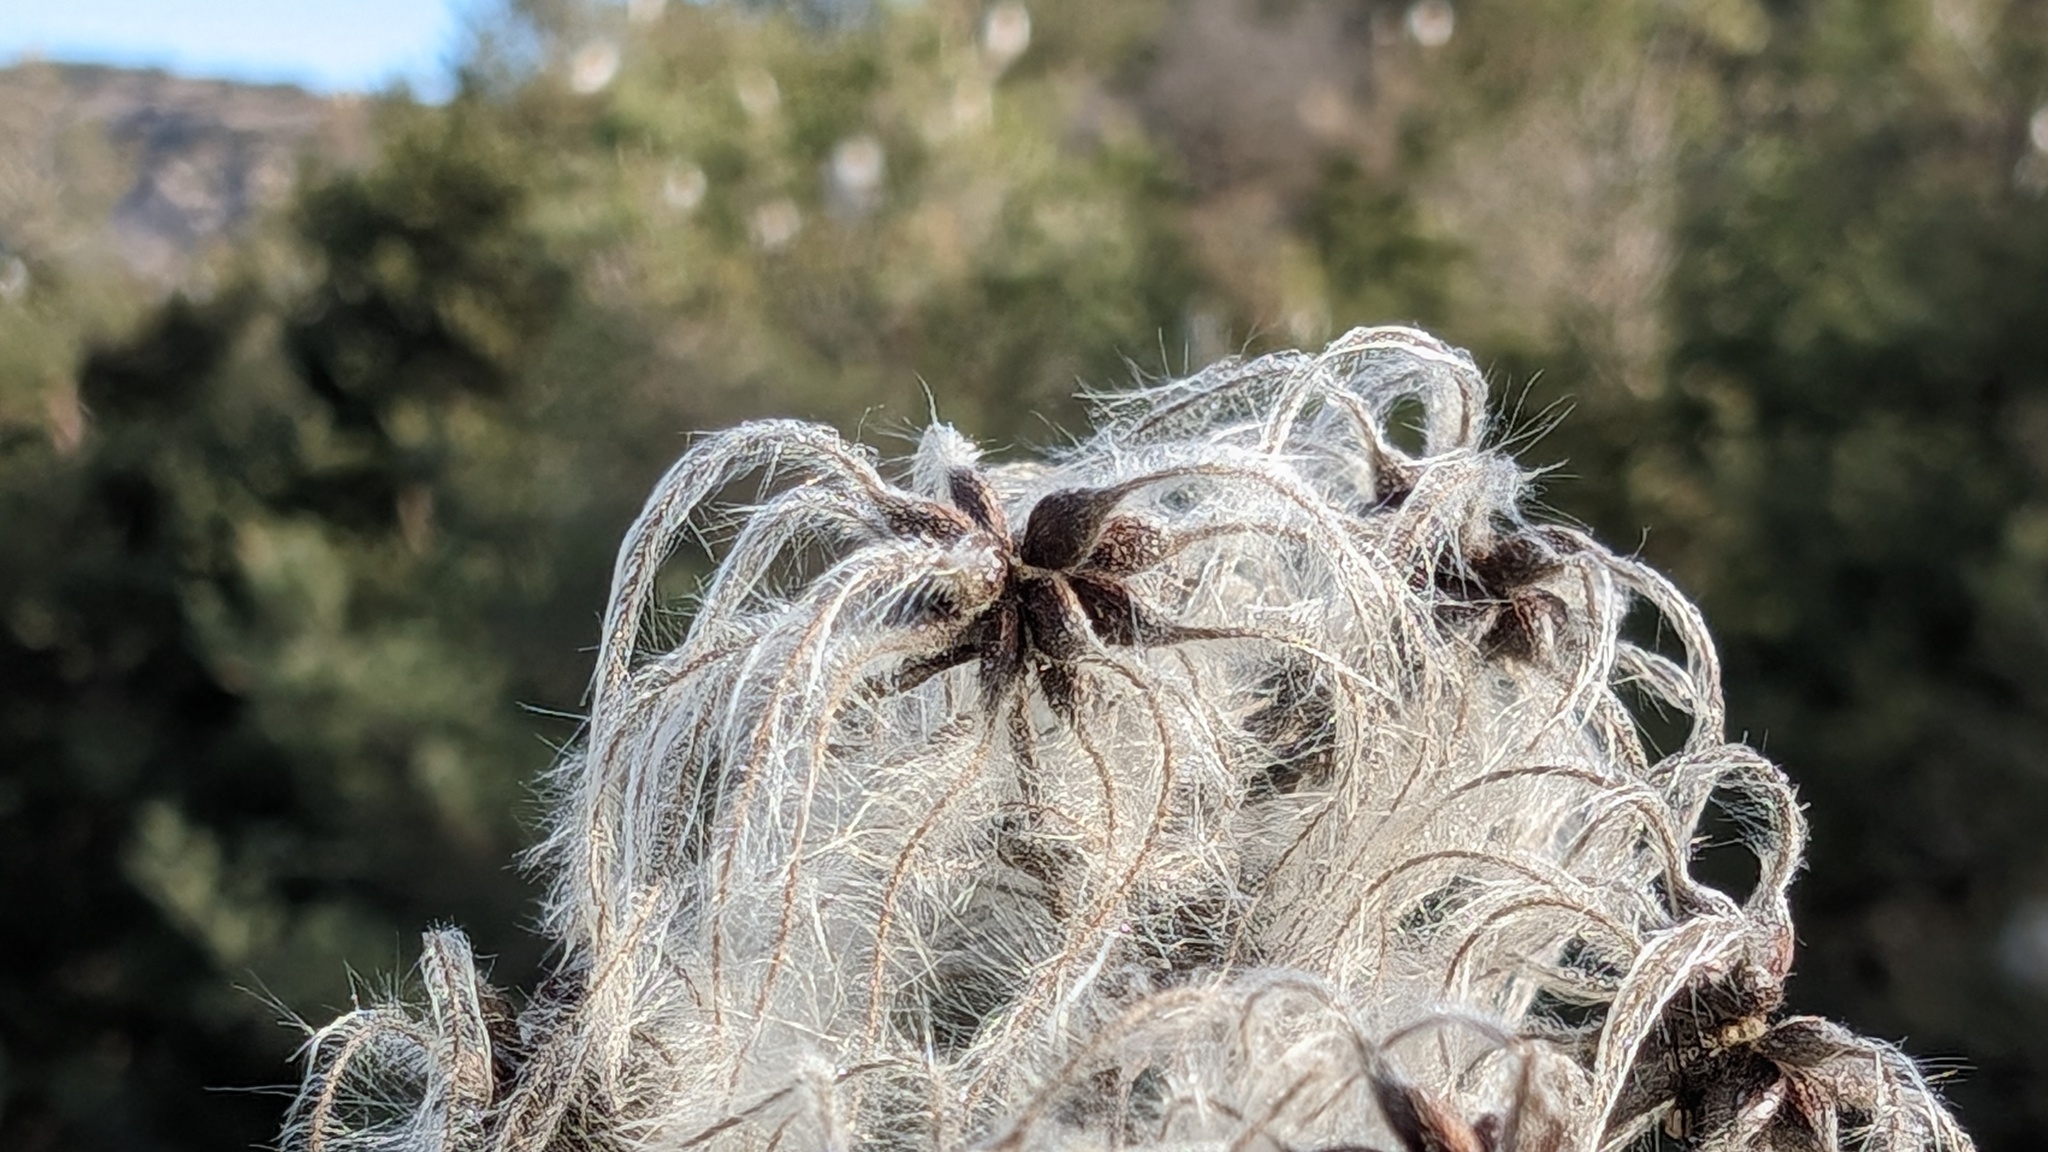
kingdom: Plantae
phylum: Tracheophyta
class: Magnoliopsida
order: Ranunculales
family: Ranunculaceae
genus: Clematis
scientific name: Clematis vitalba
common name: Evergreen clematis
